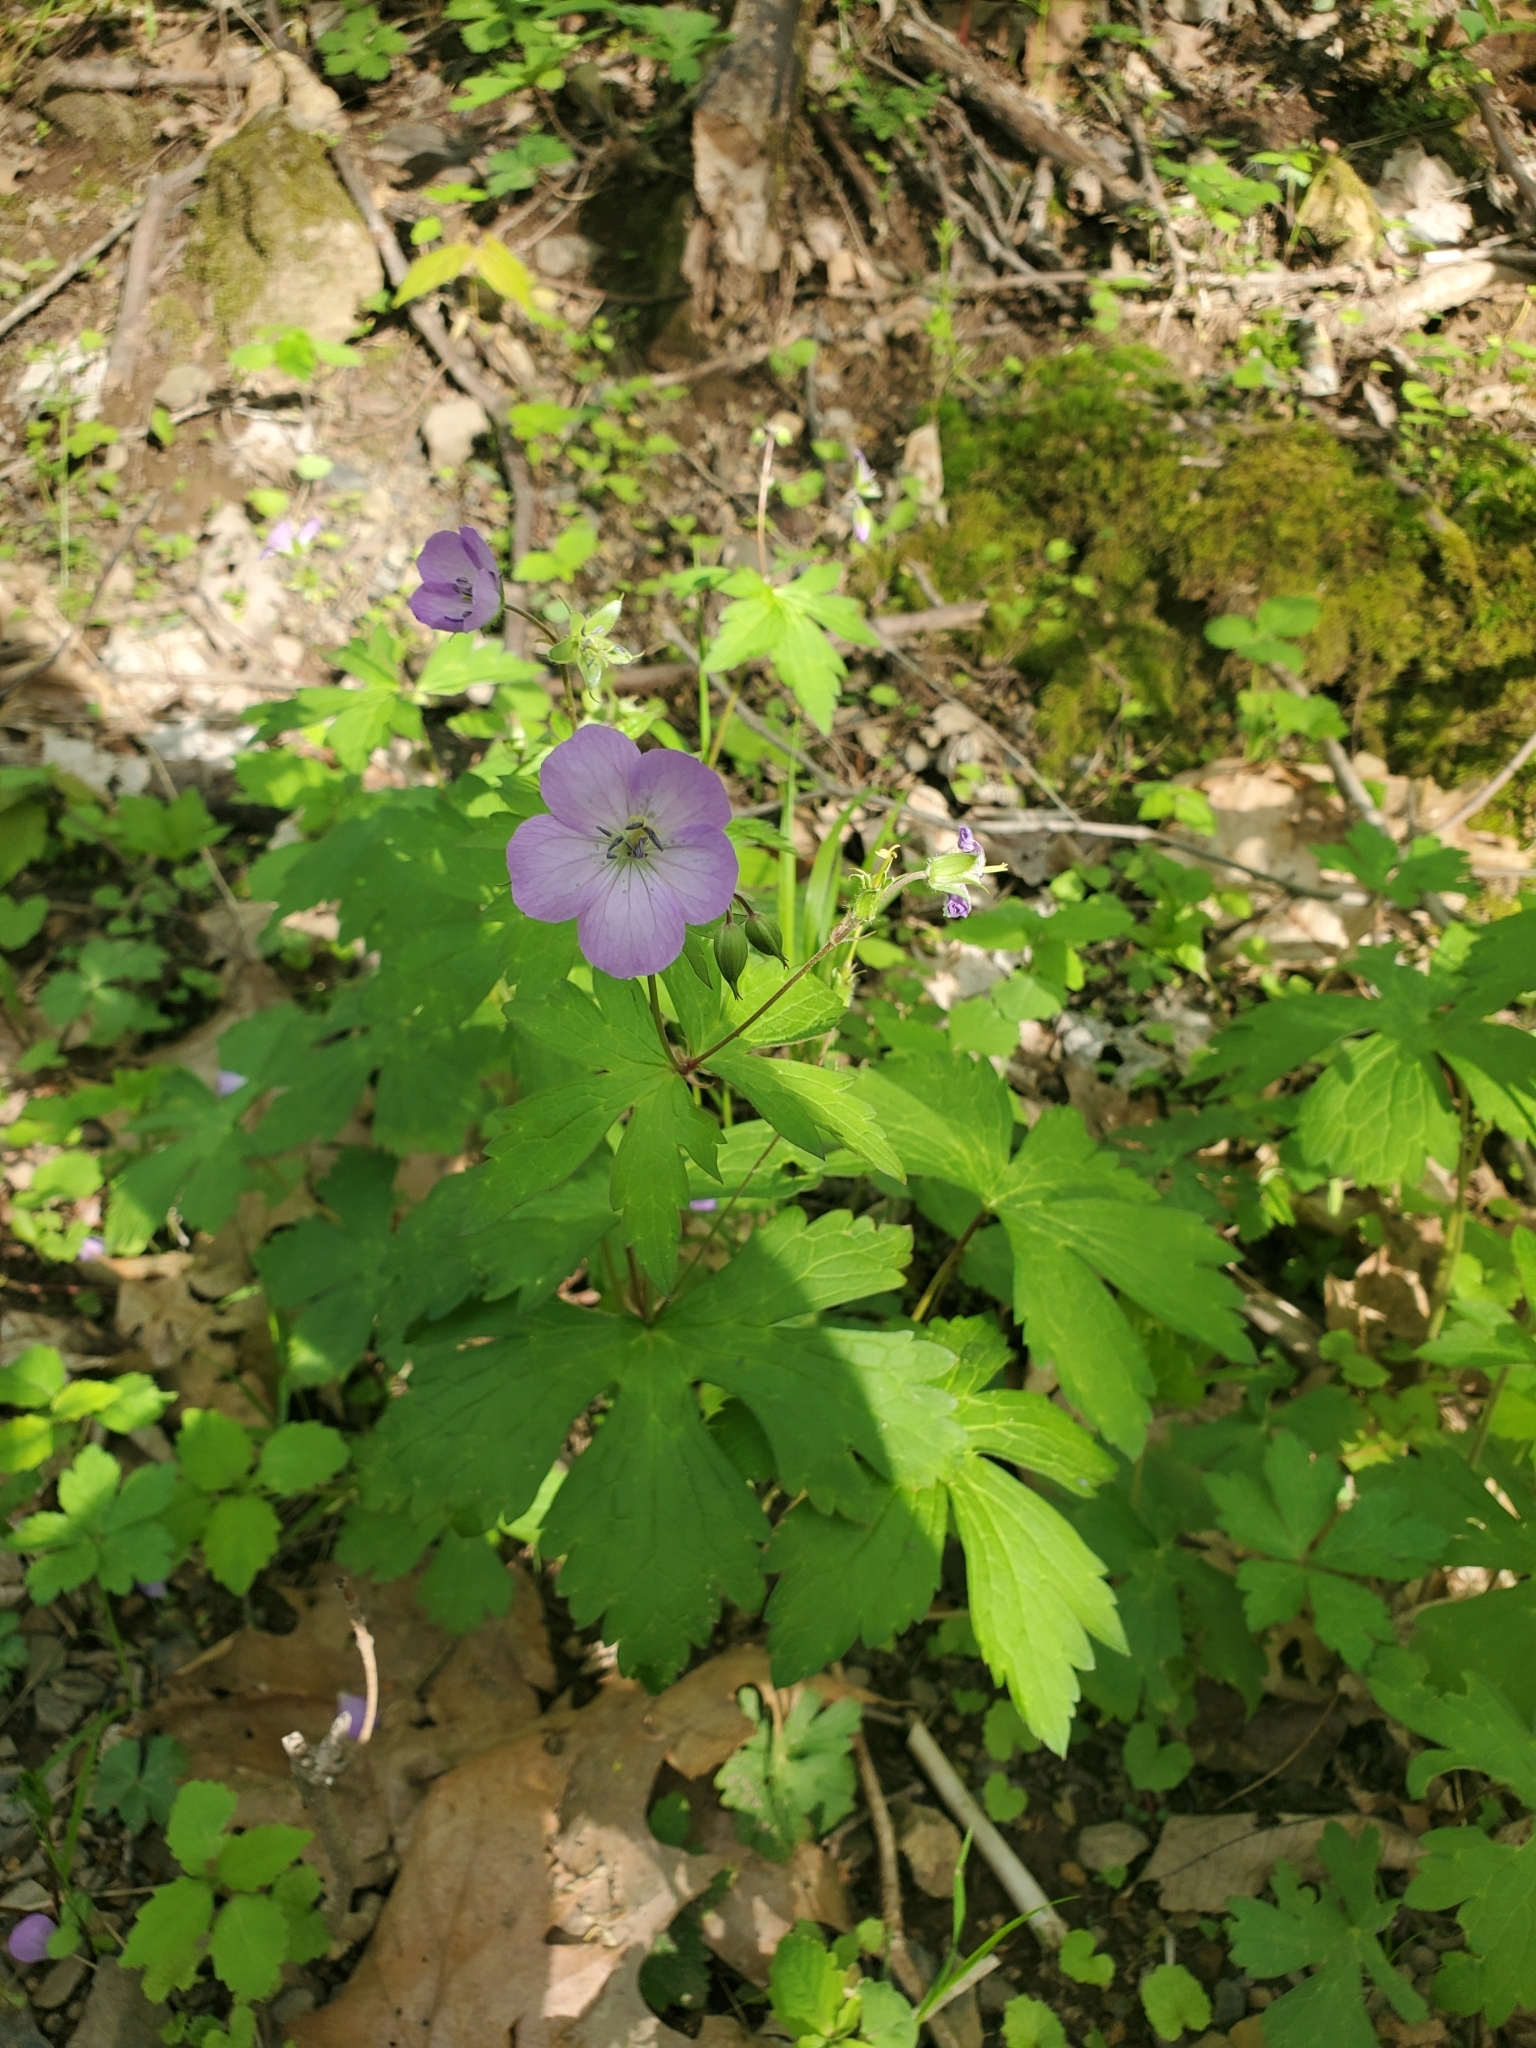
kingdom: Plantae
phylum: Tracheophyta
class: Magnoliopsida
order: Geraniales
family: Geraniaceae
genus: Geranium
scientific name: Geranium maculatum
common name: Spotted geranium
